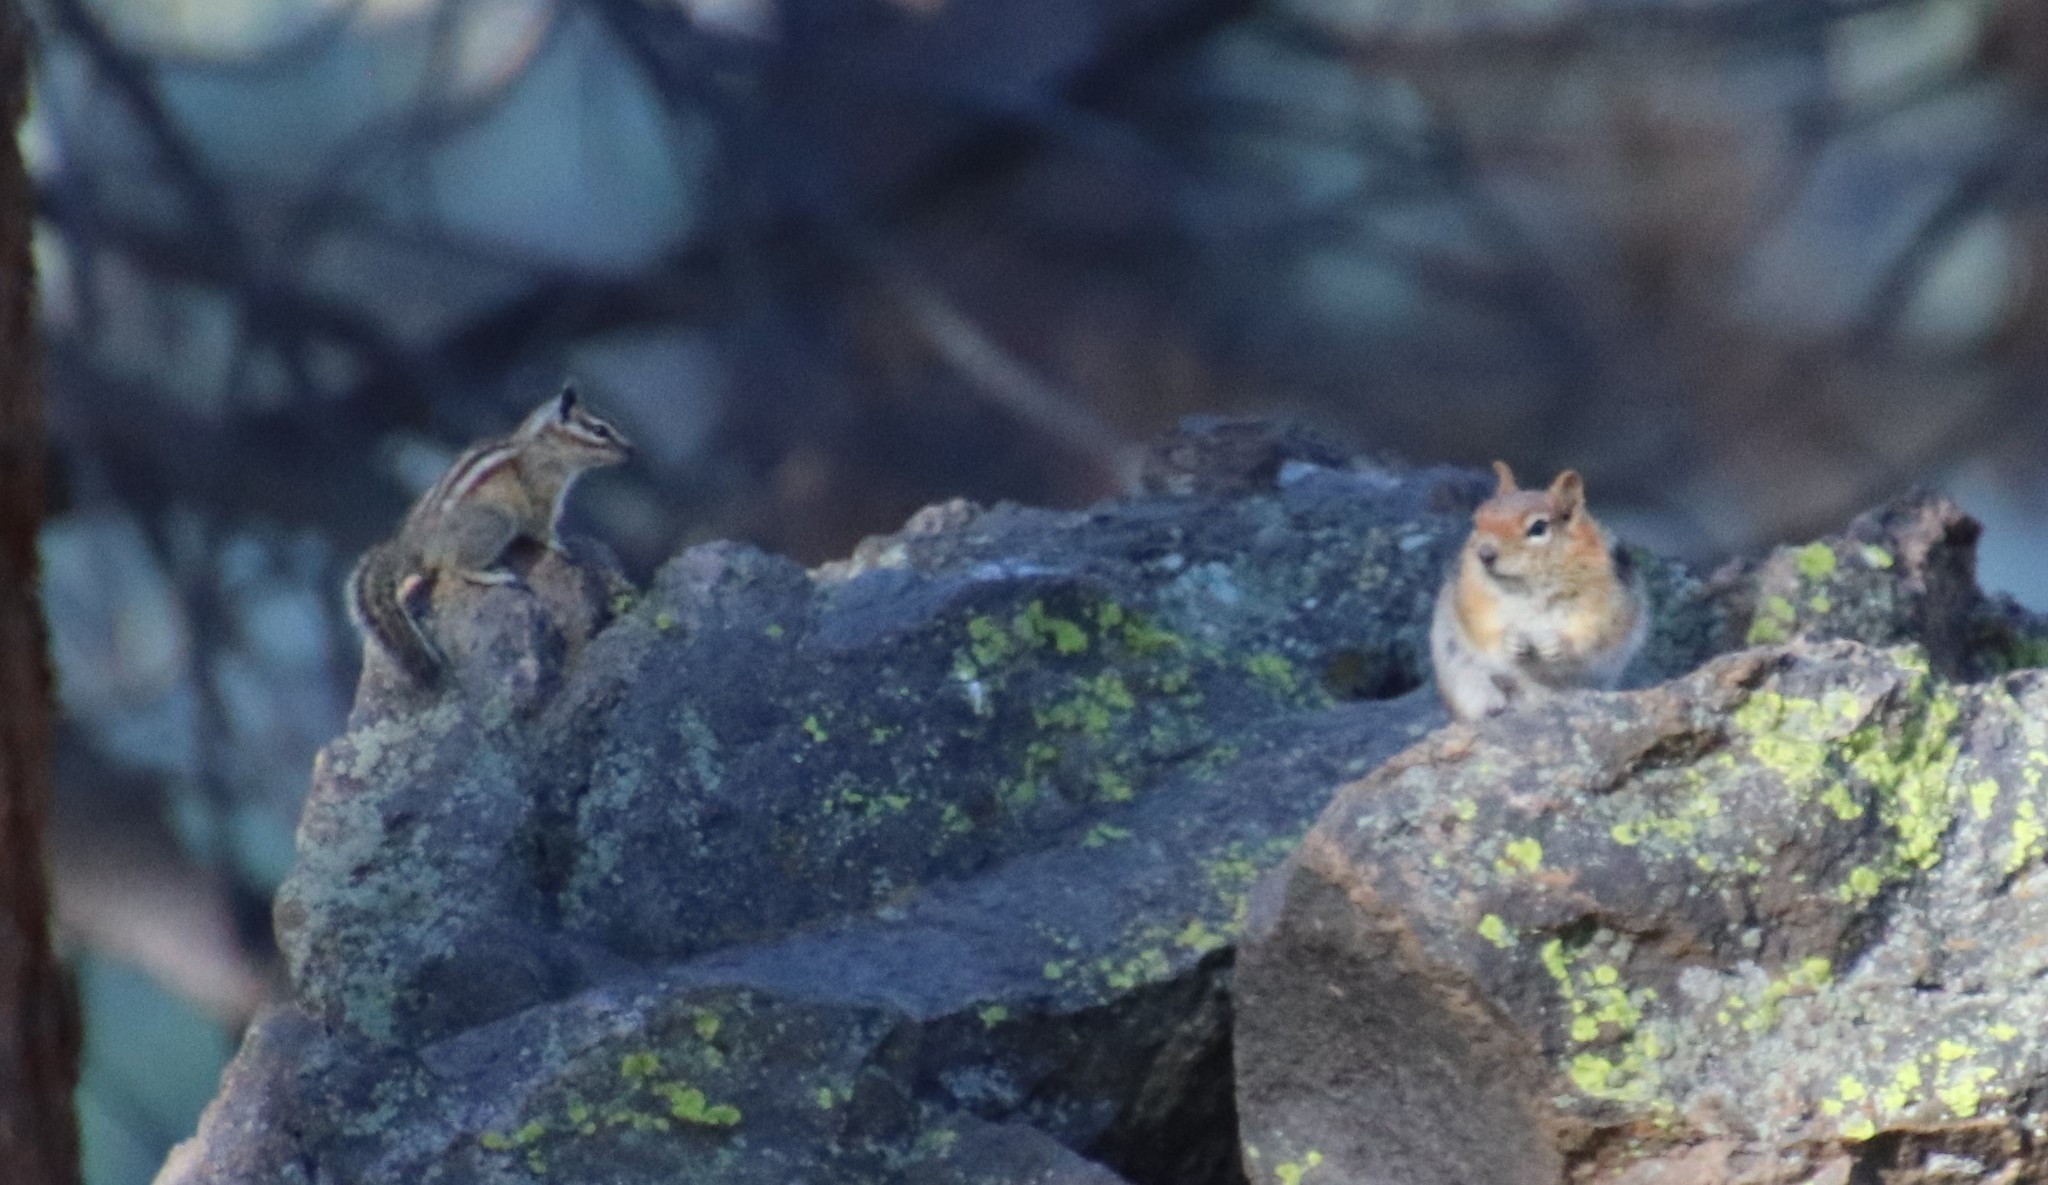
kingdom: Animalia
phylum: Chordata
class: Mammalia
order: Rodentia
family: Sciuridae
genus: Callospermophilus
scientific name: Callospermophilus lateralis
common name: Golden-mantled ground squirrel
